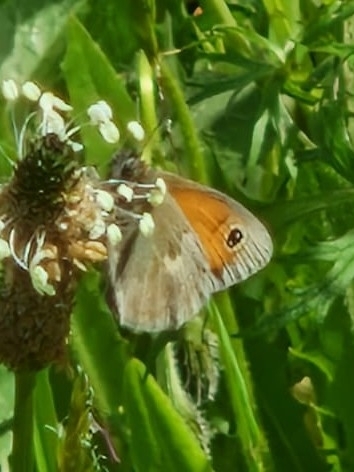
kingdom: Animalia
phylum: Arthropoda
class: Insecta
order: Lepidoptera
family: Nymphalidae
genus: Pyronia
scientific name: Pyronia tithonus
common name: Gatekeeper
